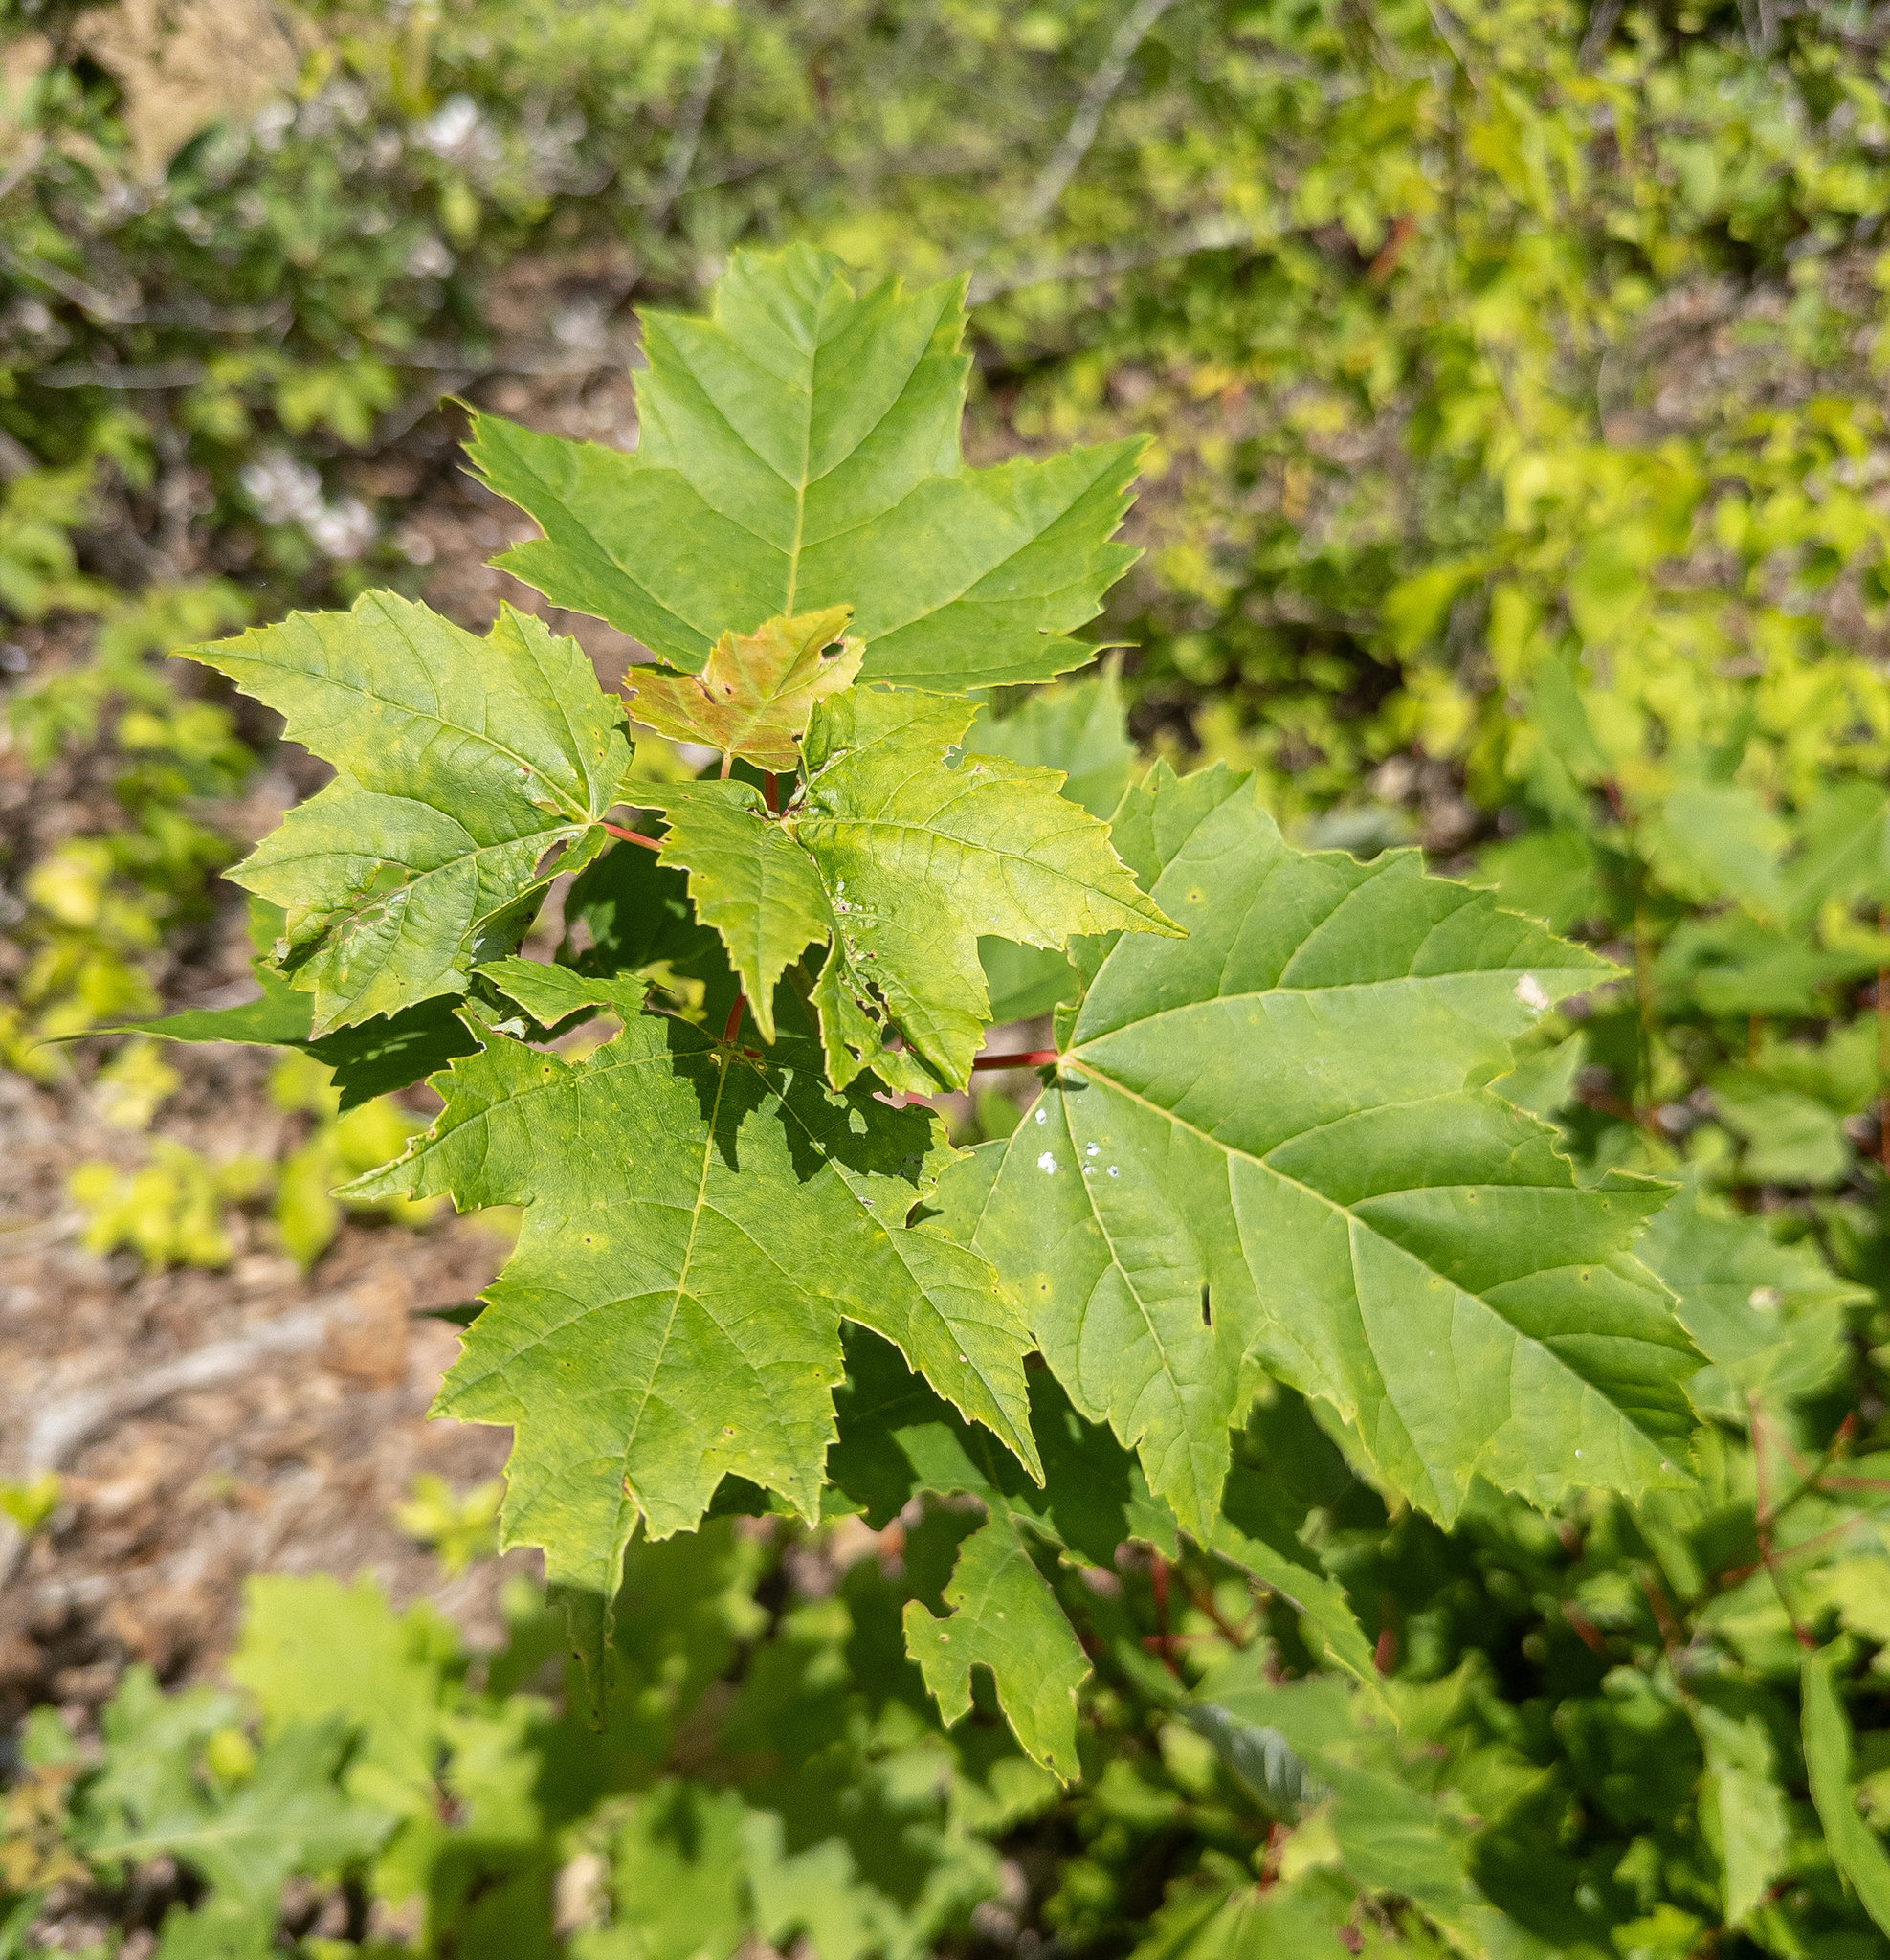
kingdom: Plantae
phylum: Tracheophyta
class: Magnoliopsida
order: Sapindales
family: Sapindaceae
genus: Acer
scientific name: Acer rubrum
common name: Red maple
